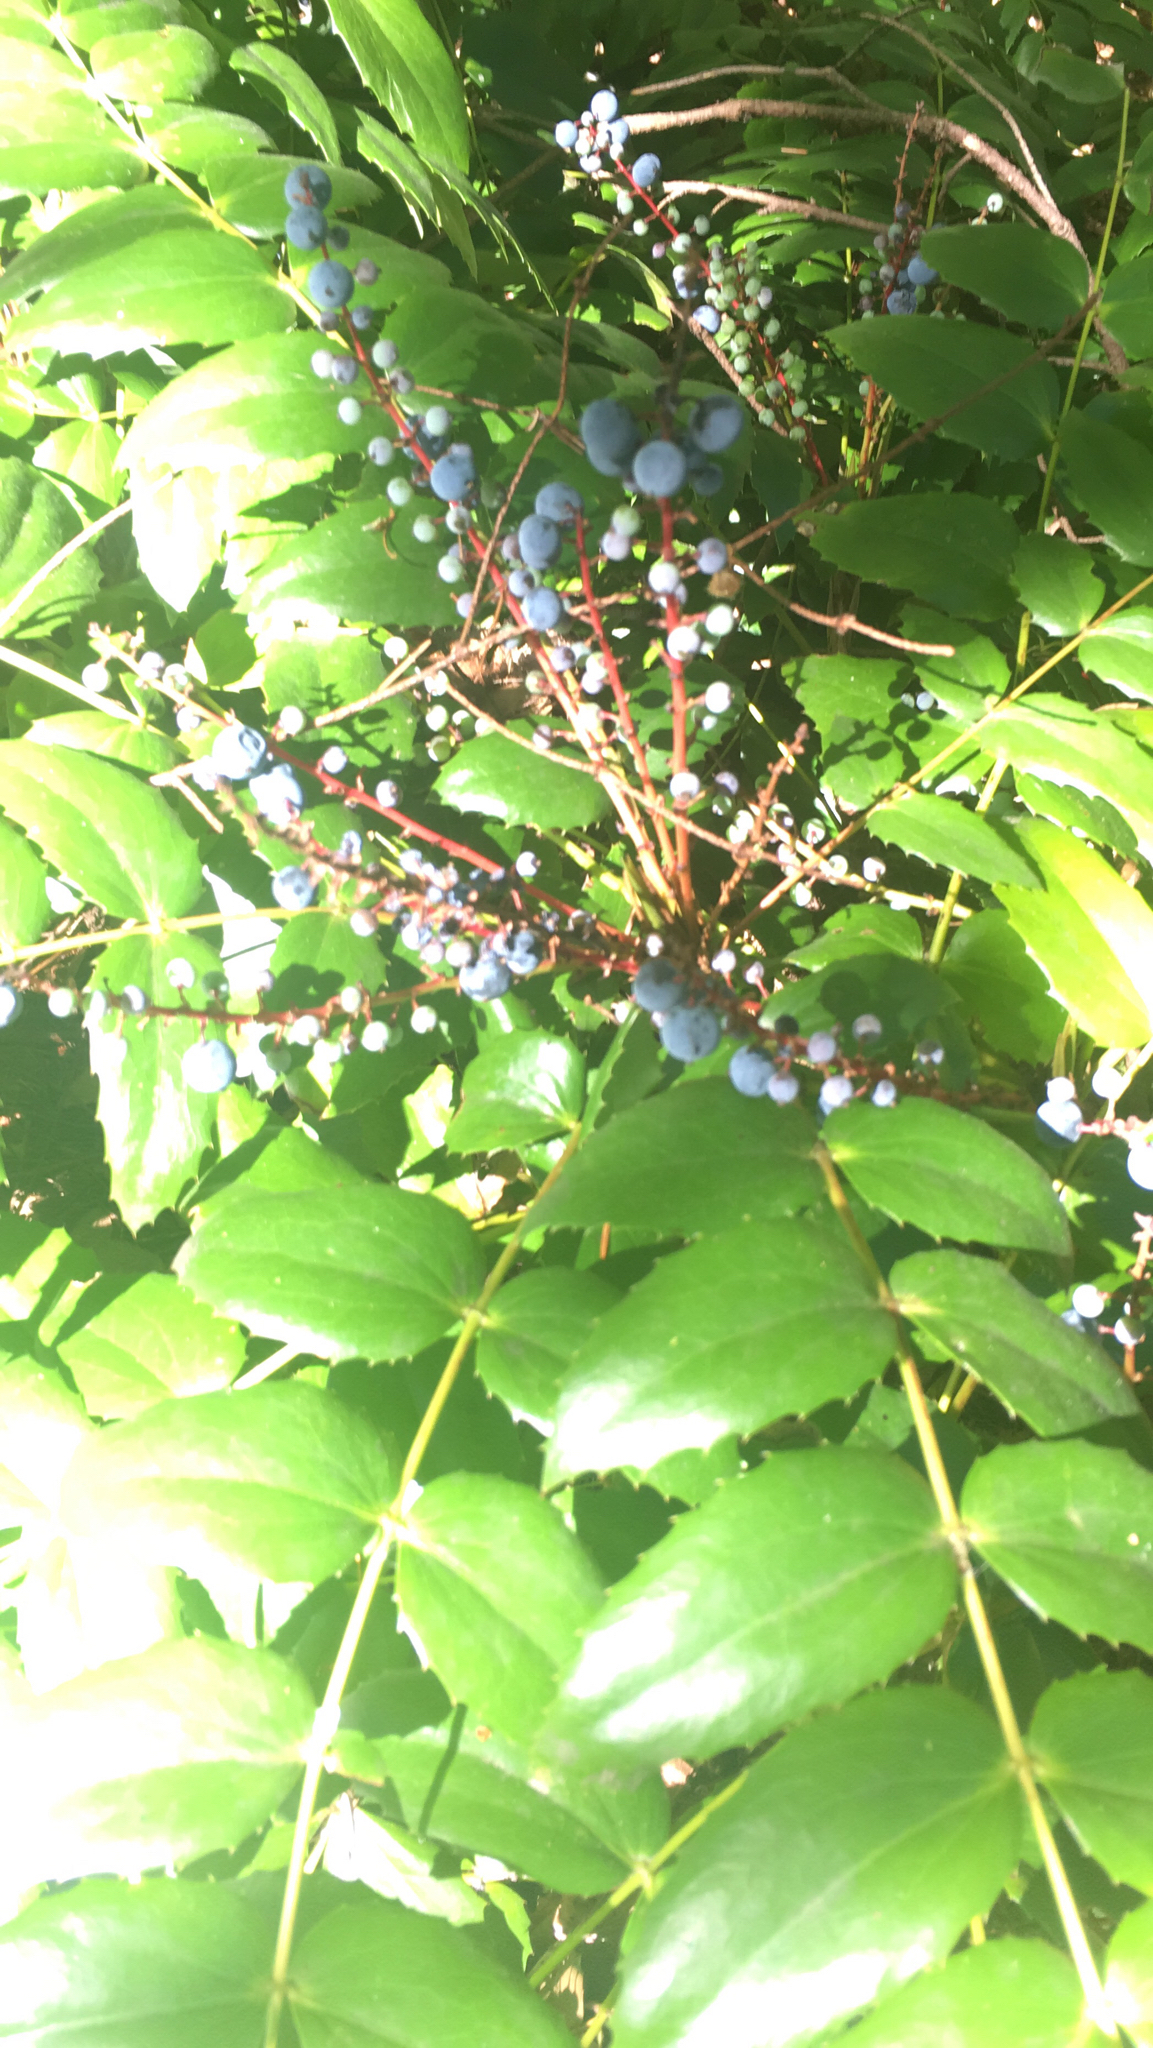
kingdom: Plantae
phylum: Tracheophyta
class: Magnoliopsida
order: Ranunculales
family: Berberidaceae
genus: Mahonia
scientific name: Mahonia nervosa
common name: Cascade oregon-grape
